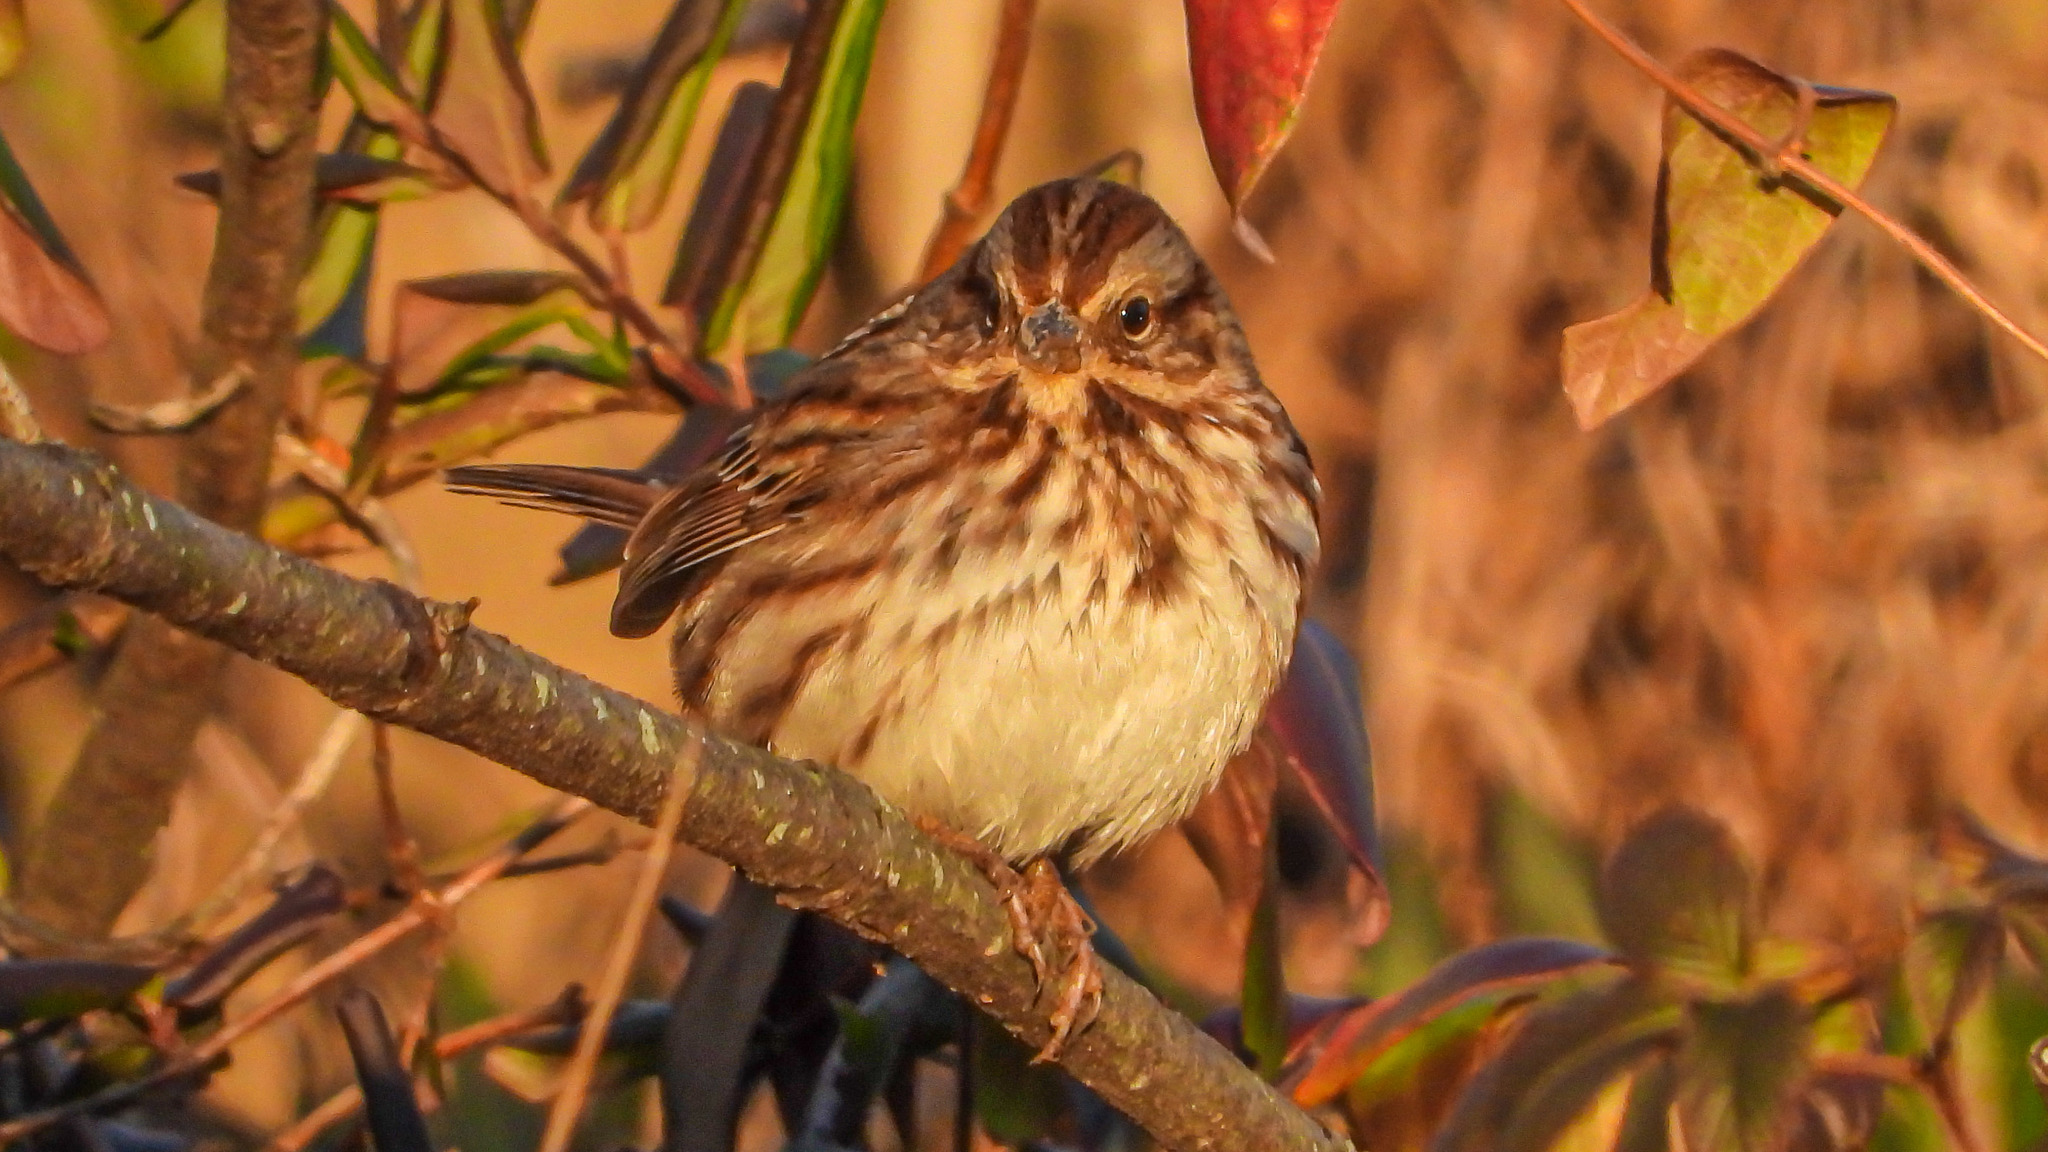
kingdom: Animalia
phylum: Chordata
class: Aves
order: Passeriformes
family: Passerellidae
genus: Melospiza
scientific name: Melospiza melodia
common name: Song sparrow
